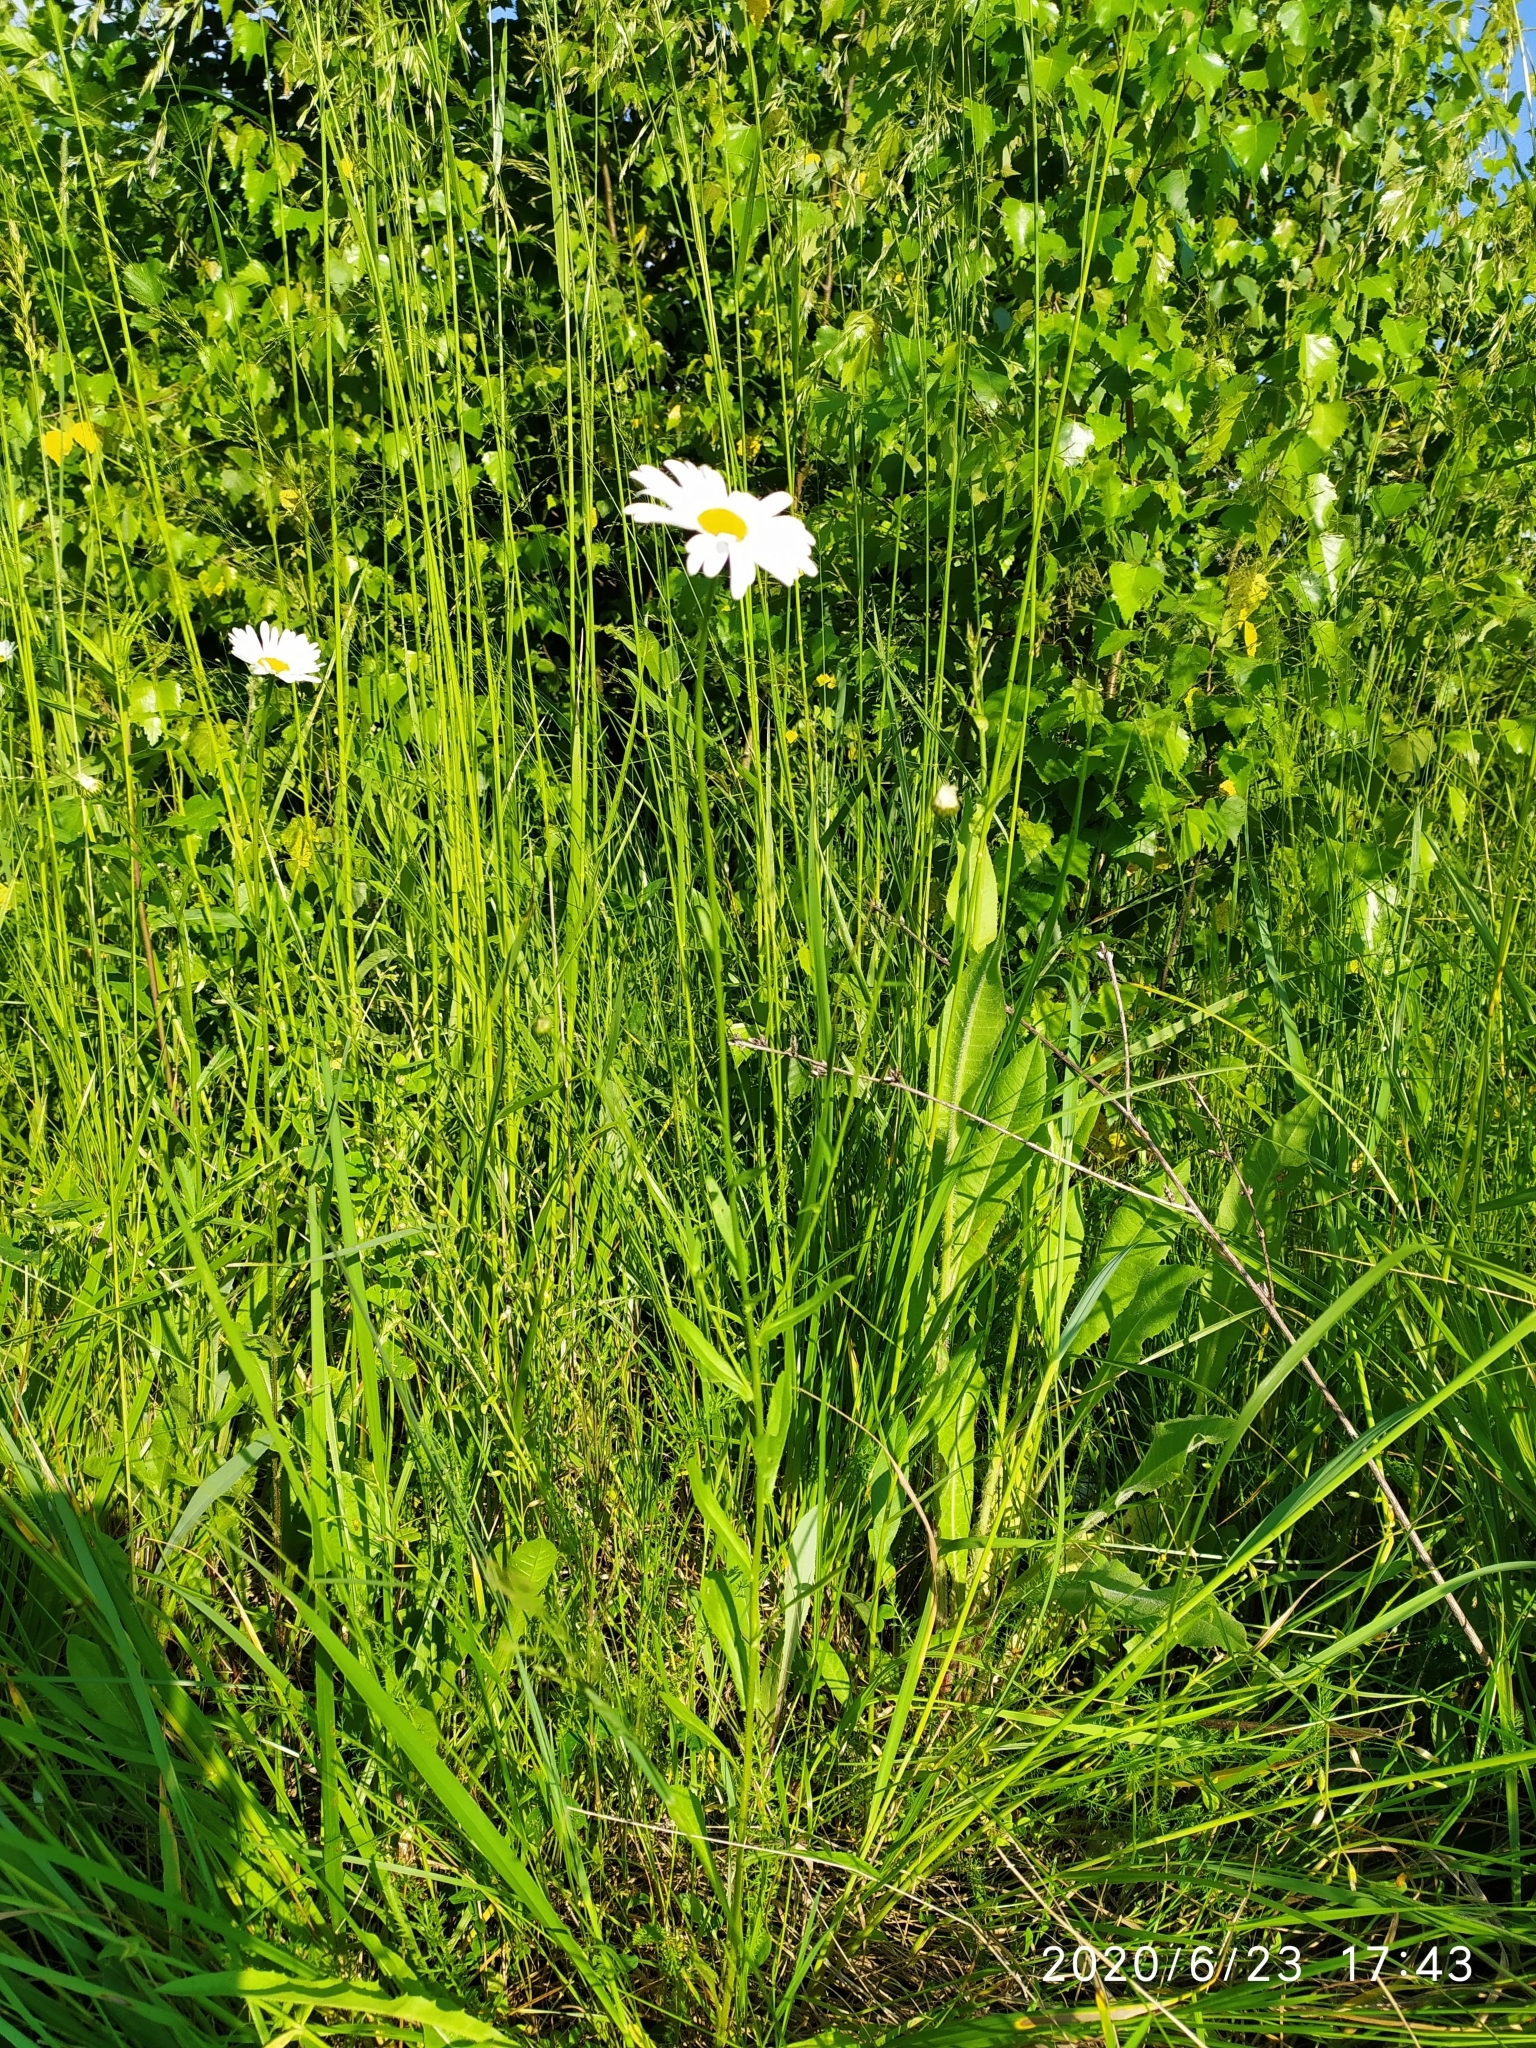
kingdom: Plantae
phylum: Tracheophyta
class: Magnoliopsida
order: Asterales
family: Asteraceae
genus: Leucanthemum
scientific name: Leucanthemum vulgare
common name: Oxeye daisy
